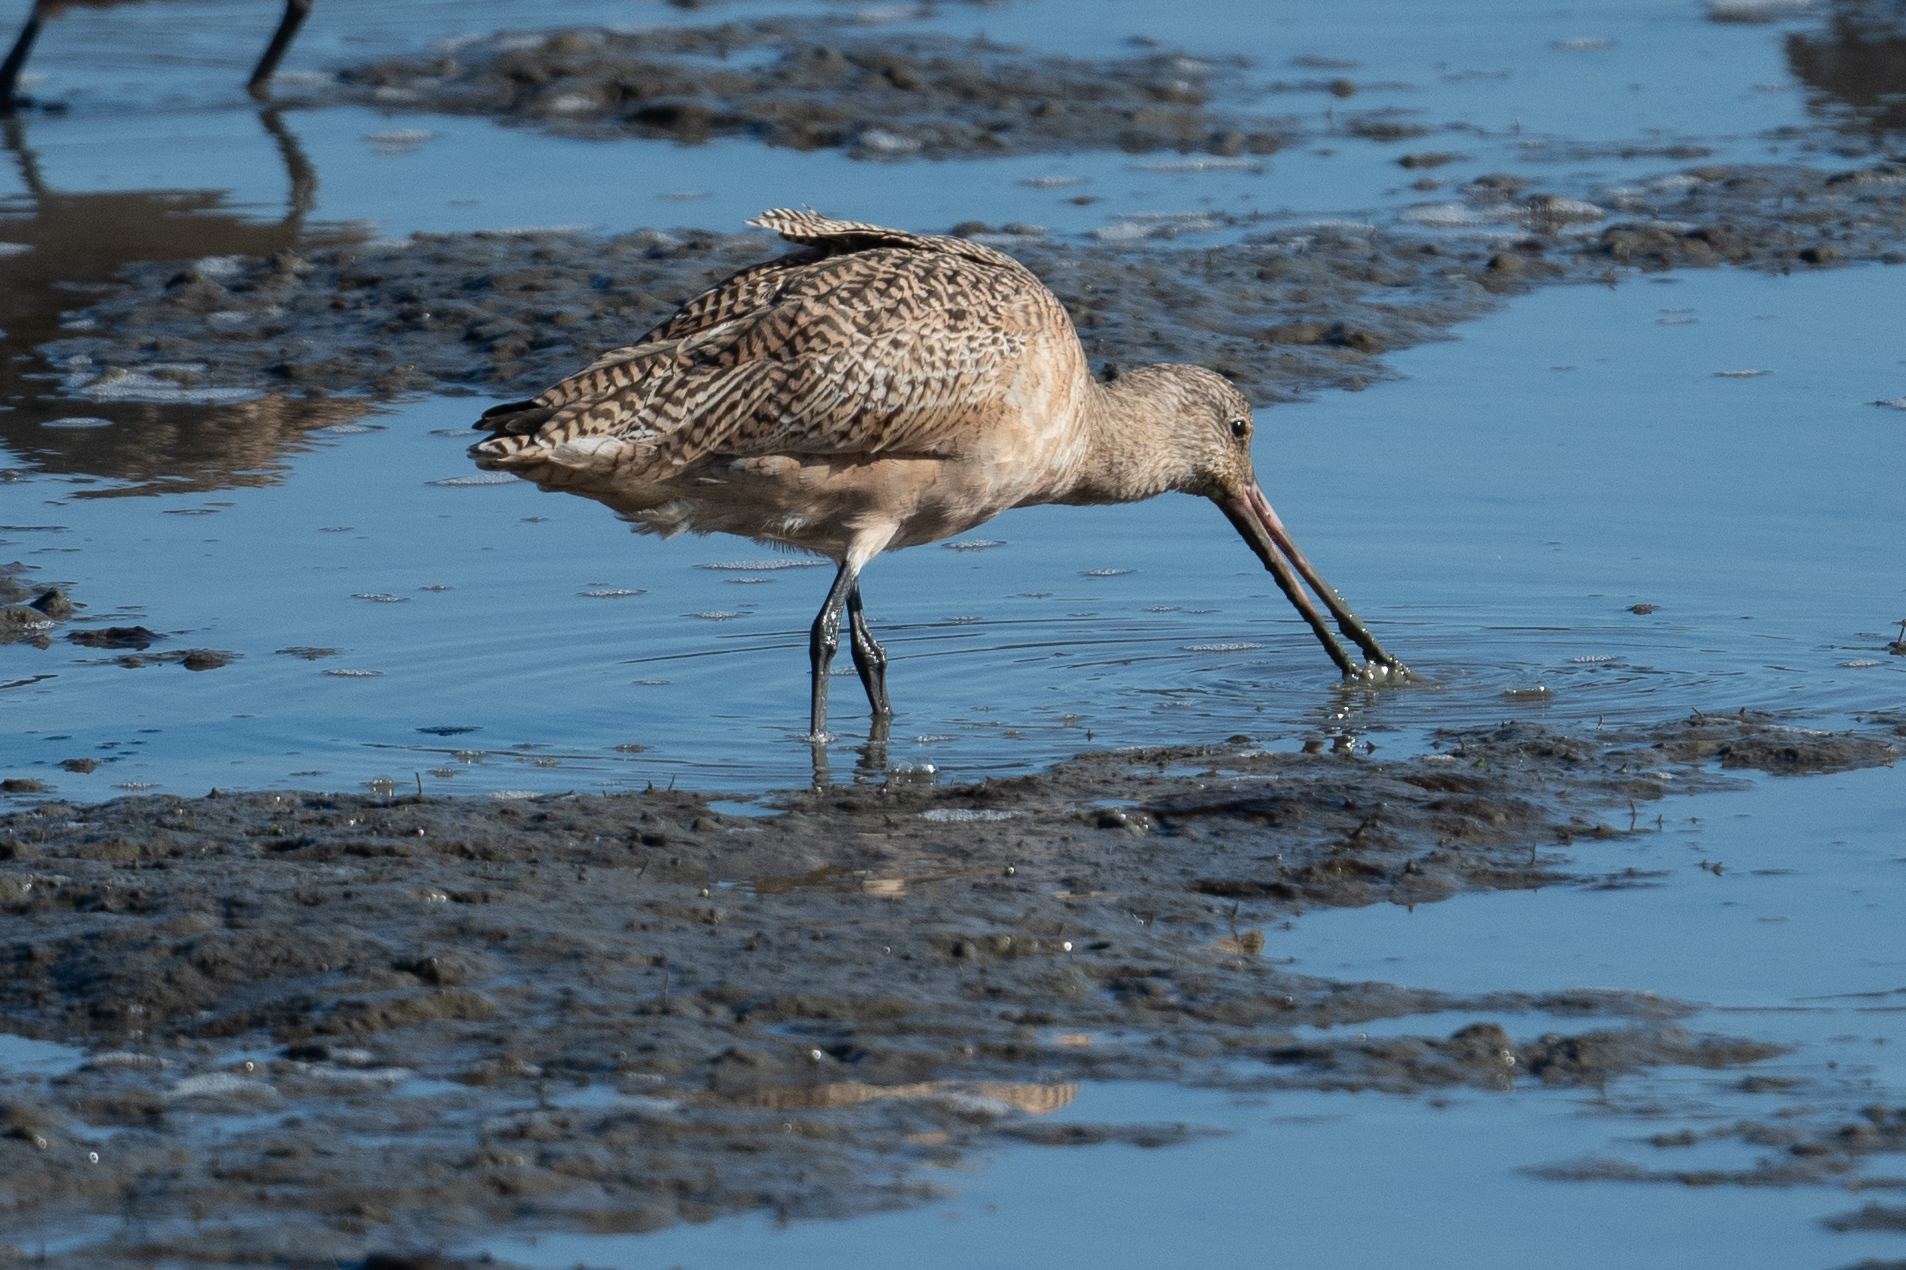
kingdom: Animalia
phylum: Chordata
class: Aves
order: Charadriiformes
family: Scolopacidae
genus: Limosa
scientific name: Limosa fedoa
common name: Marbled godwit
